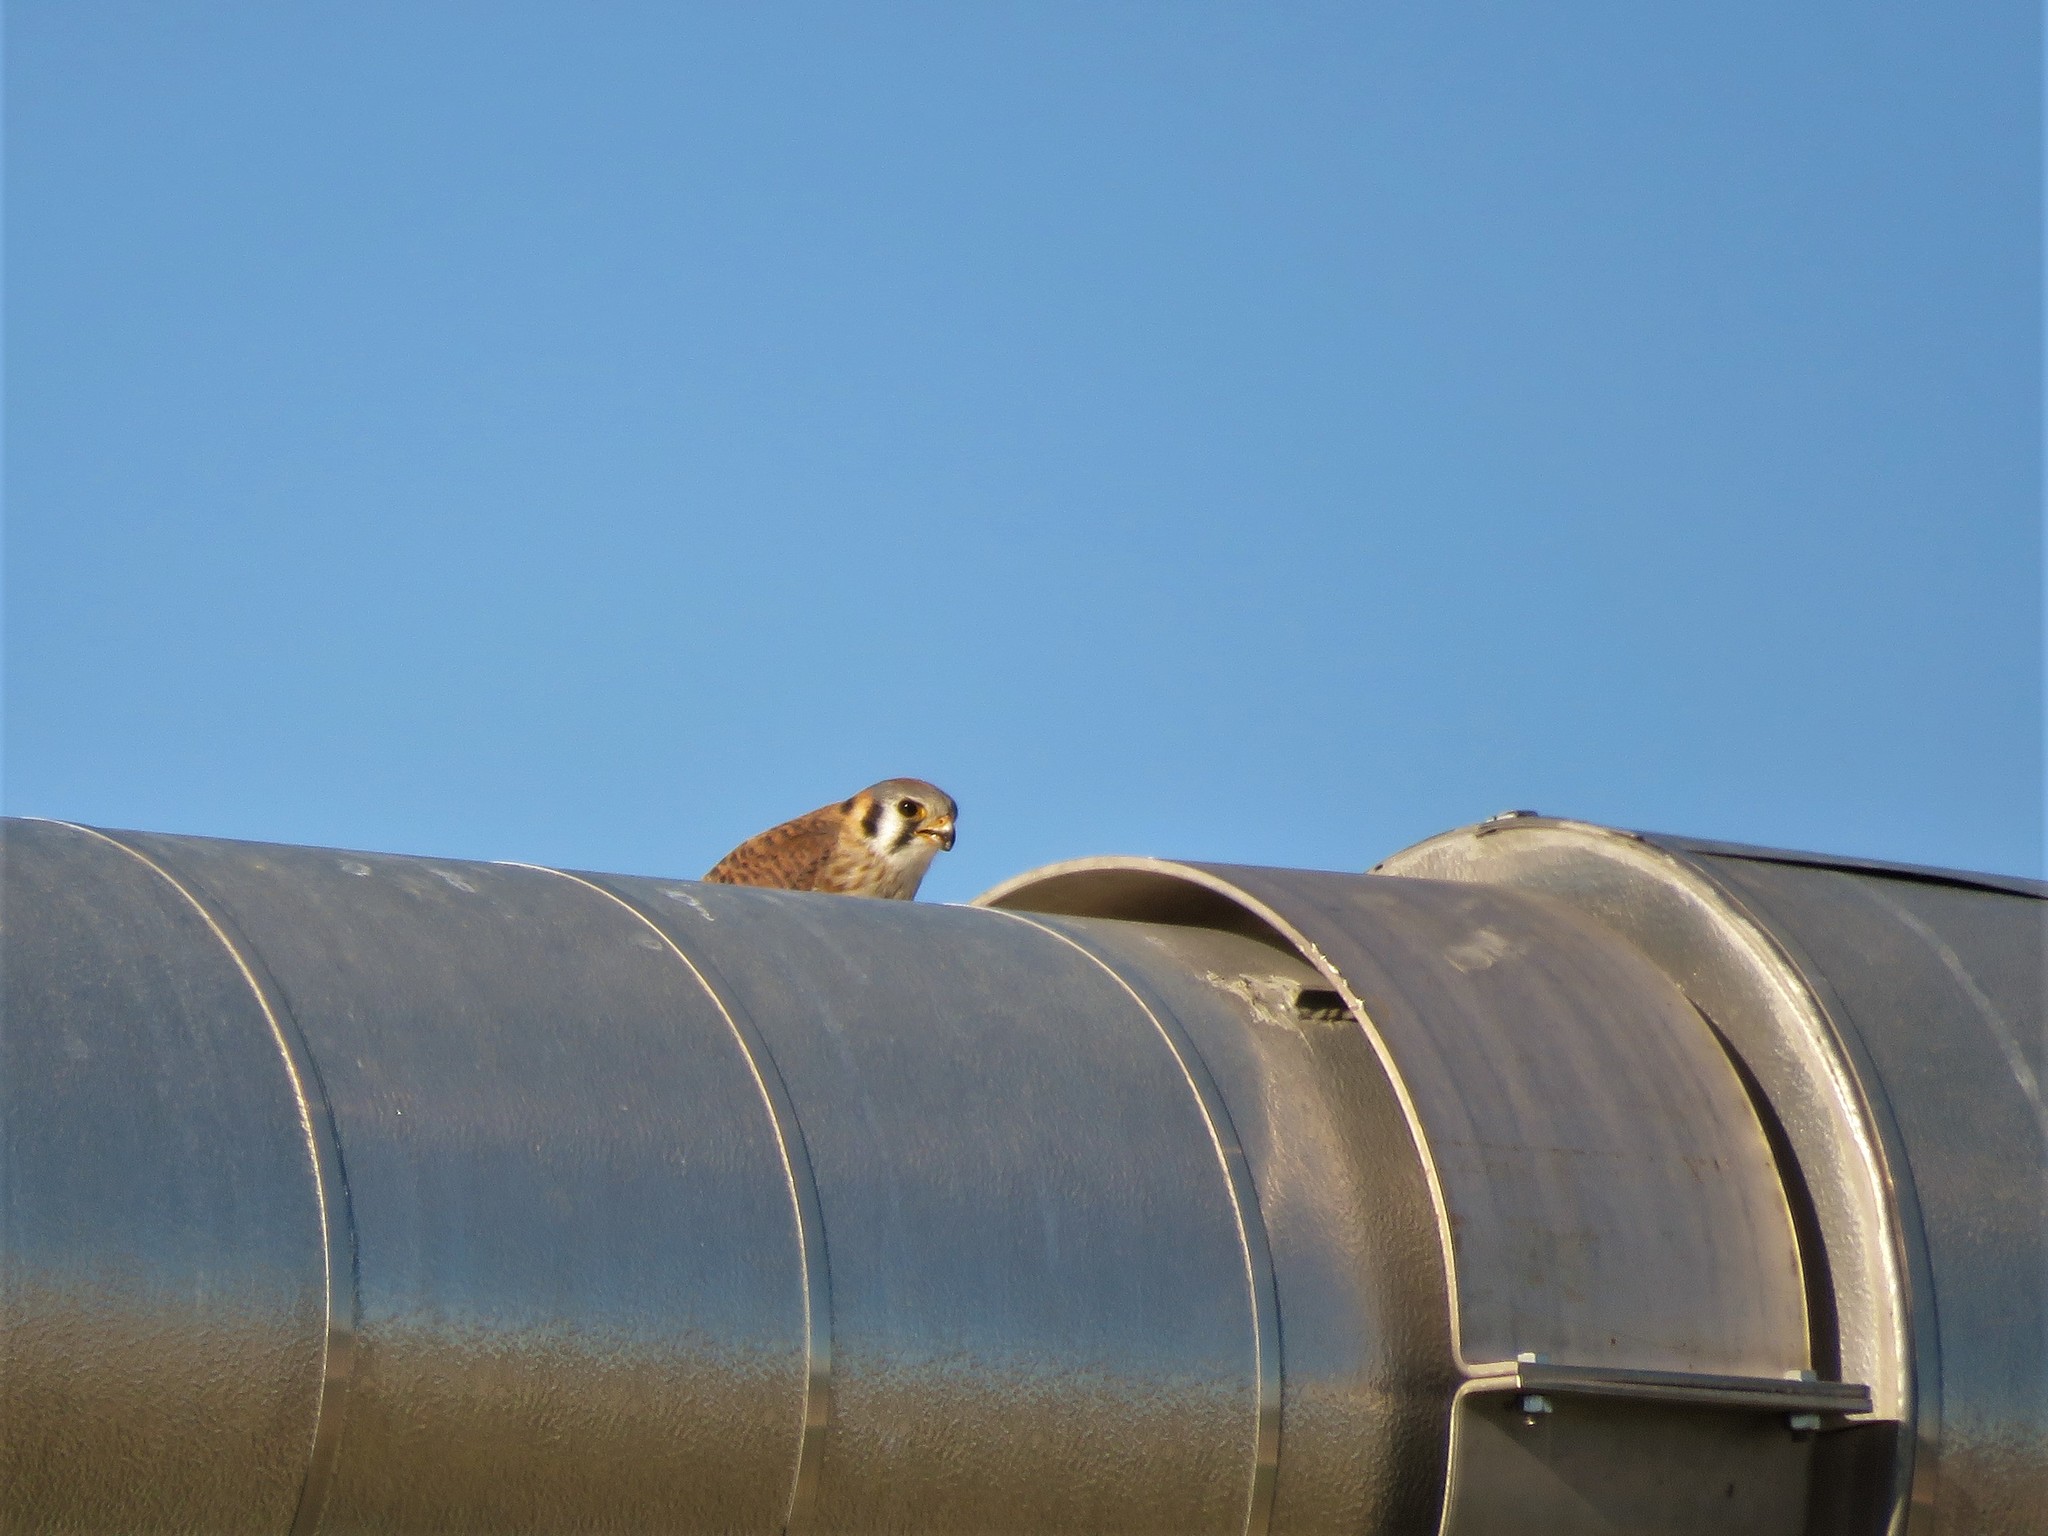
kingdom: Animalia
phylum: Chordata
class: Aves
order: Falconiformes
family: Falconidae
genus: Falco
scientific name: Falco sparverius
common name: American kestrel
